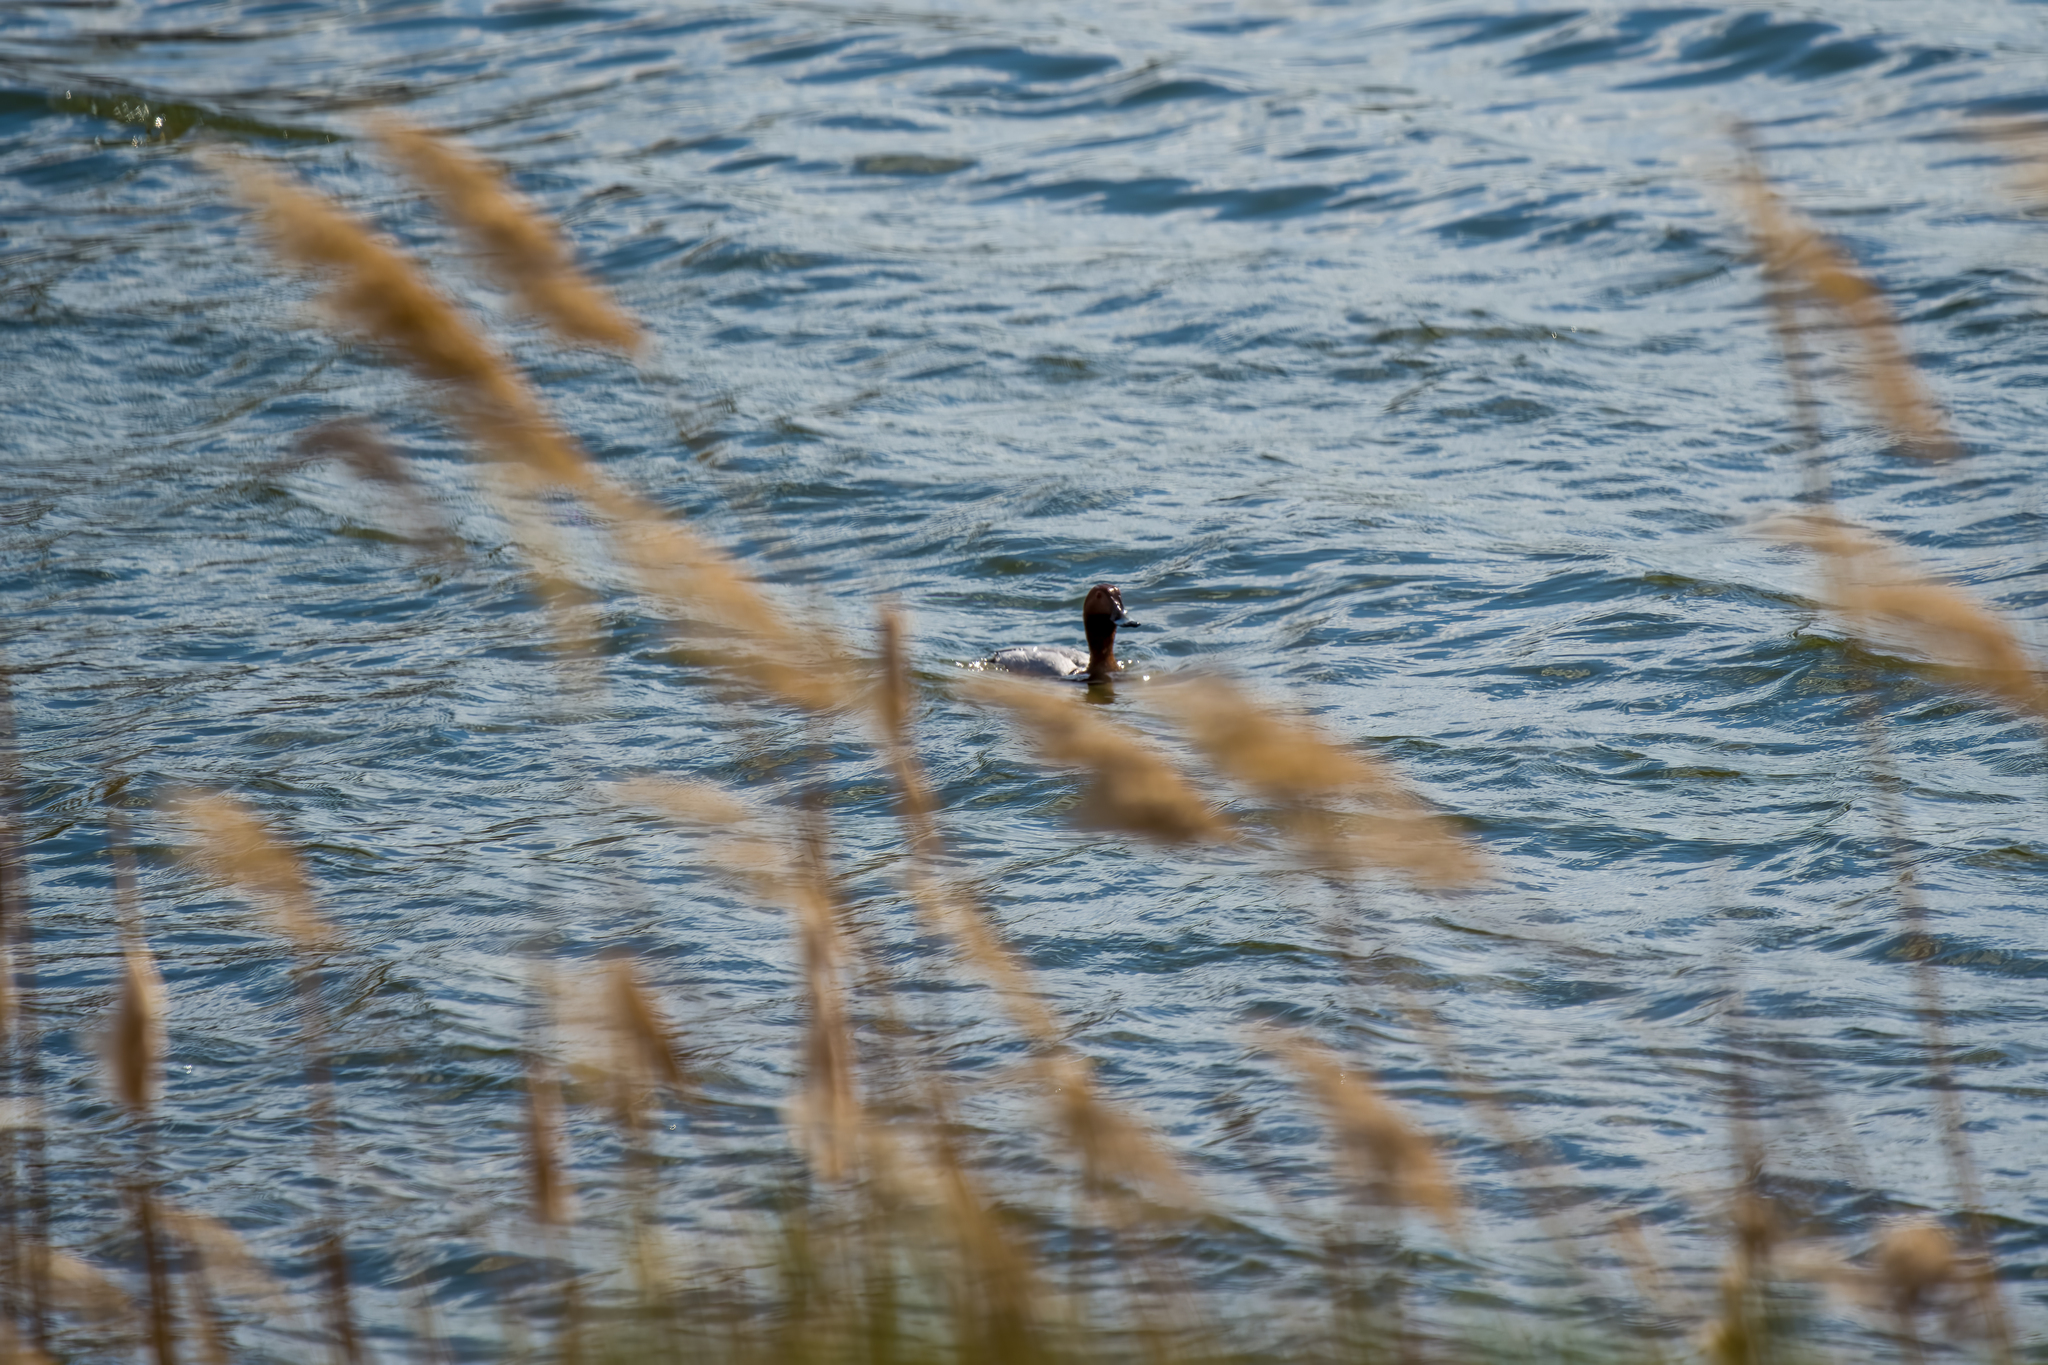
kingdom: Animalia
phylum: Chordata
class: Aves
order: Anseriformes
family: Anatidae
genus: Aythya
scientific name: Aythya ferina
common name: Common pochard
